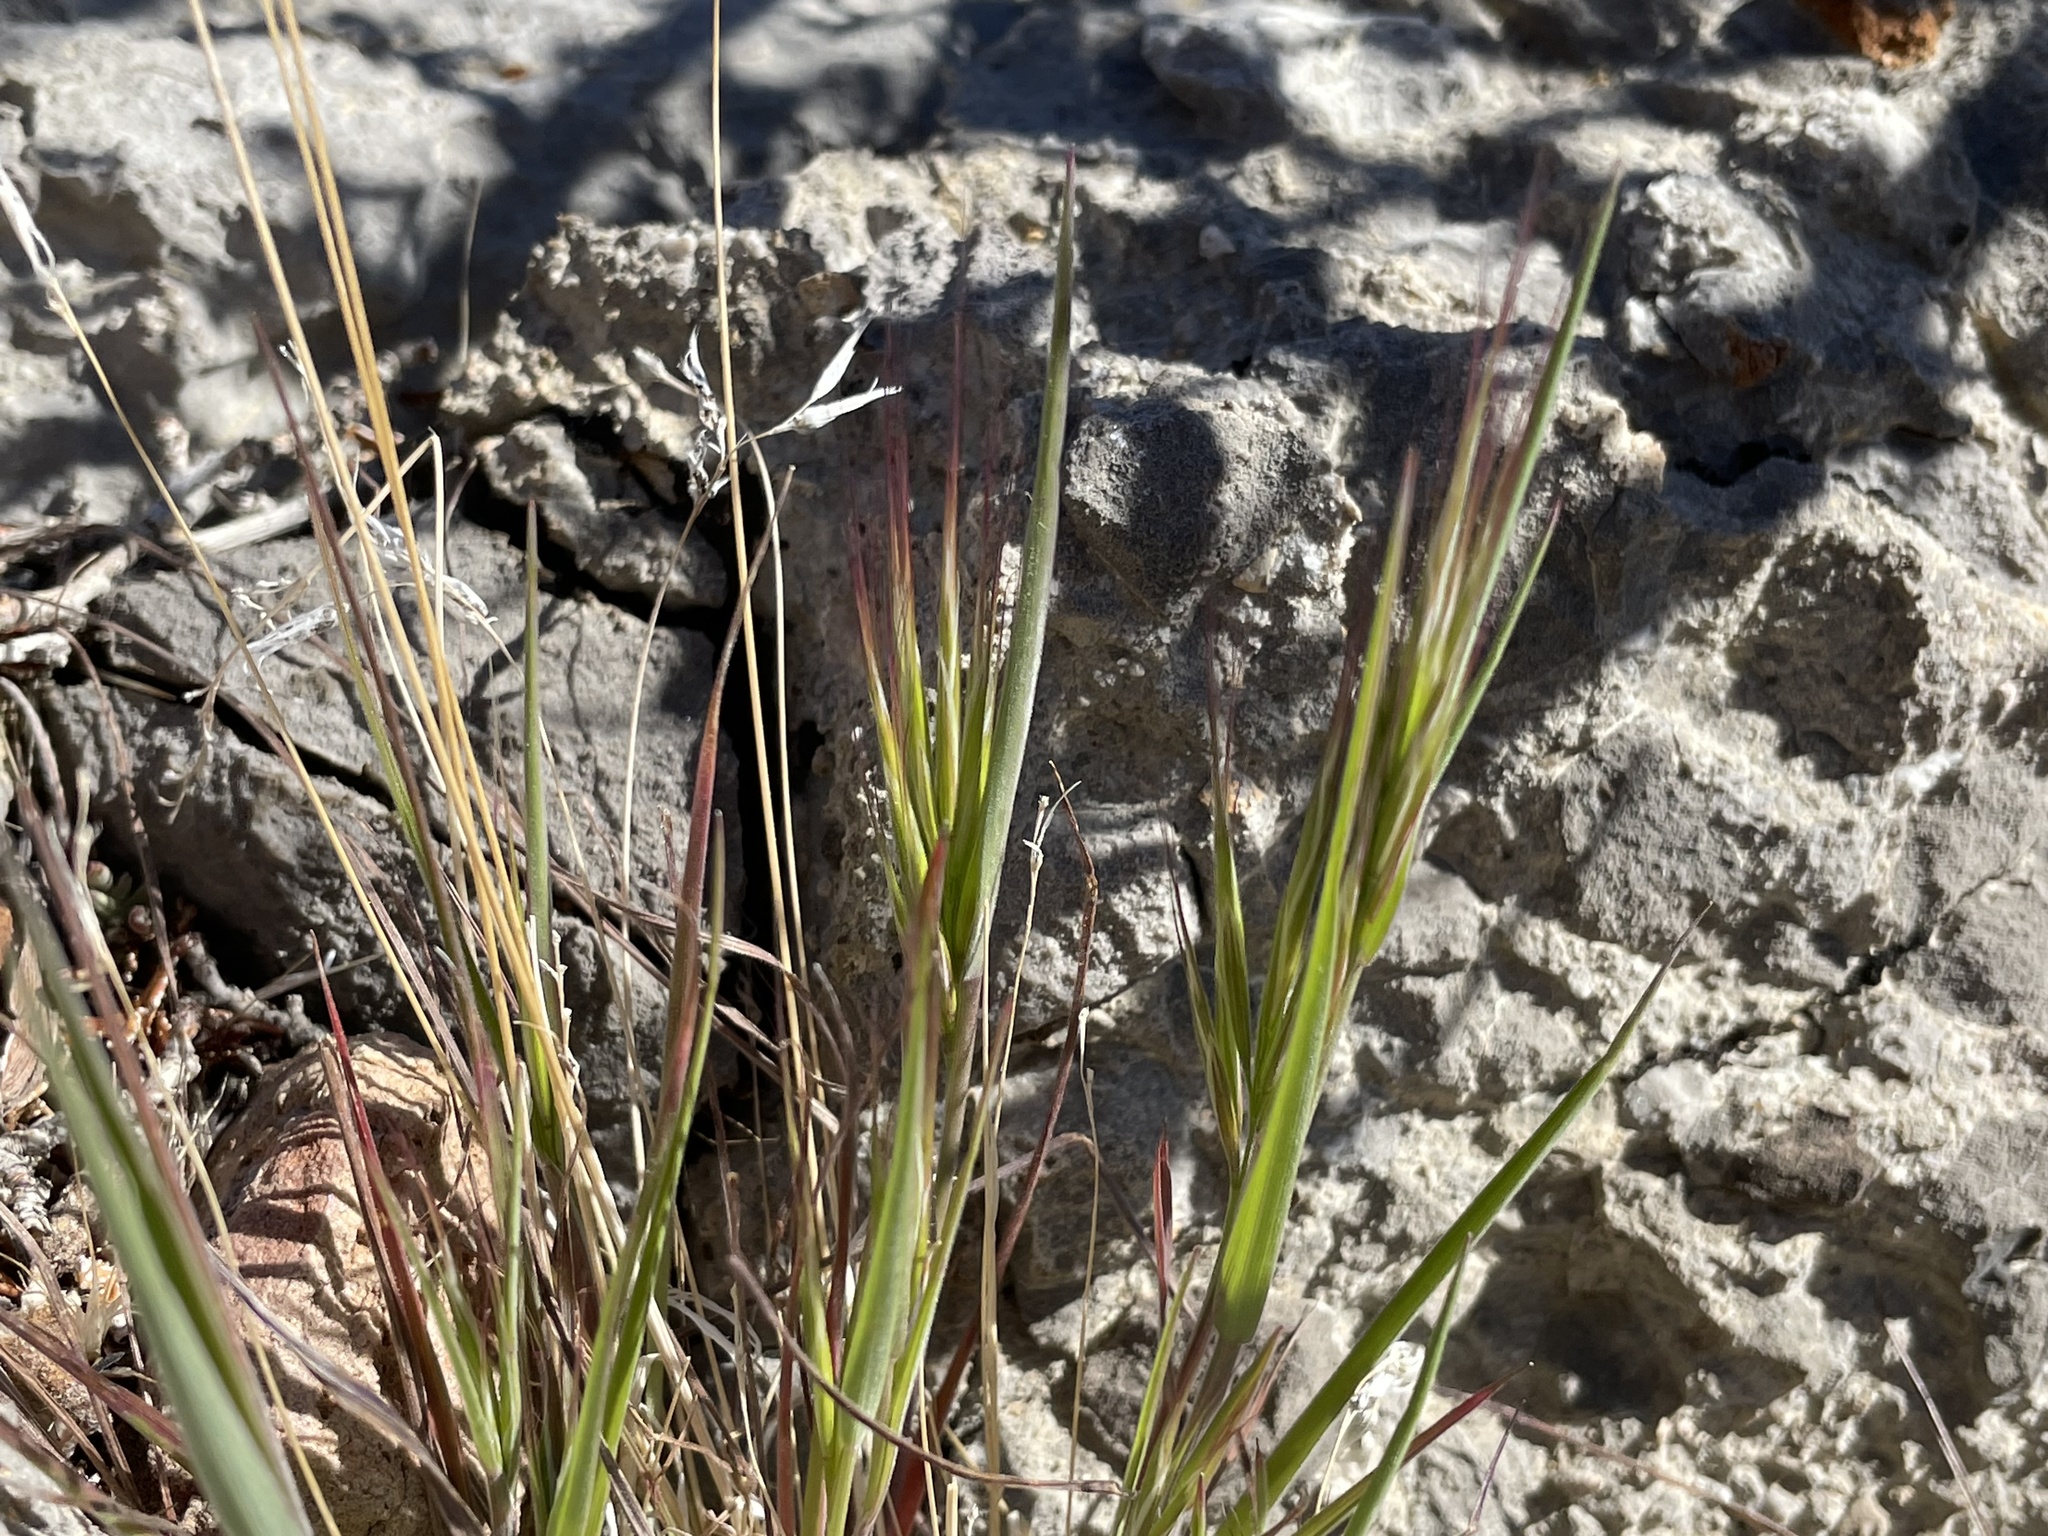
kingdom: Plantae
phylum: Tracheophyta
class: Liliopsida
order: Poales
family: Poaceae
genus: Bromus
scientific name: Bromus rubens
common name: Red brome
